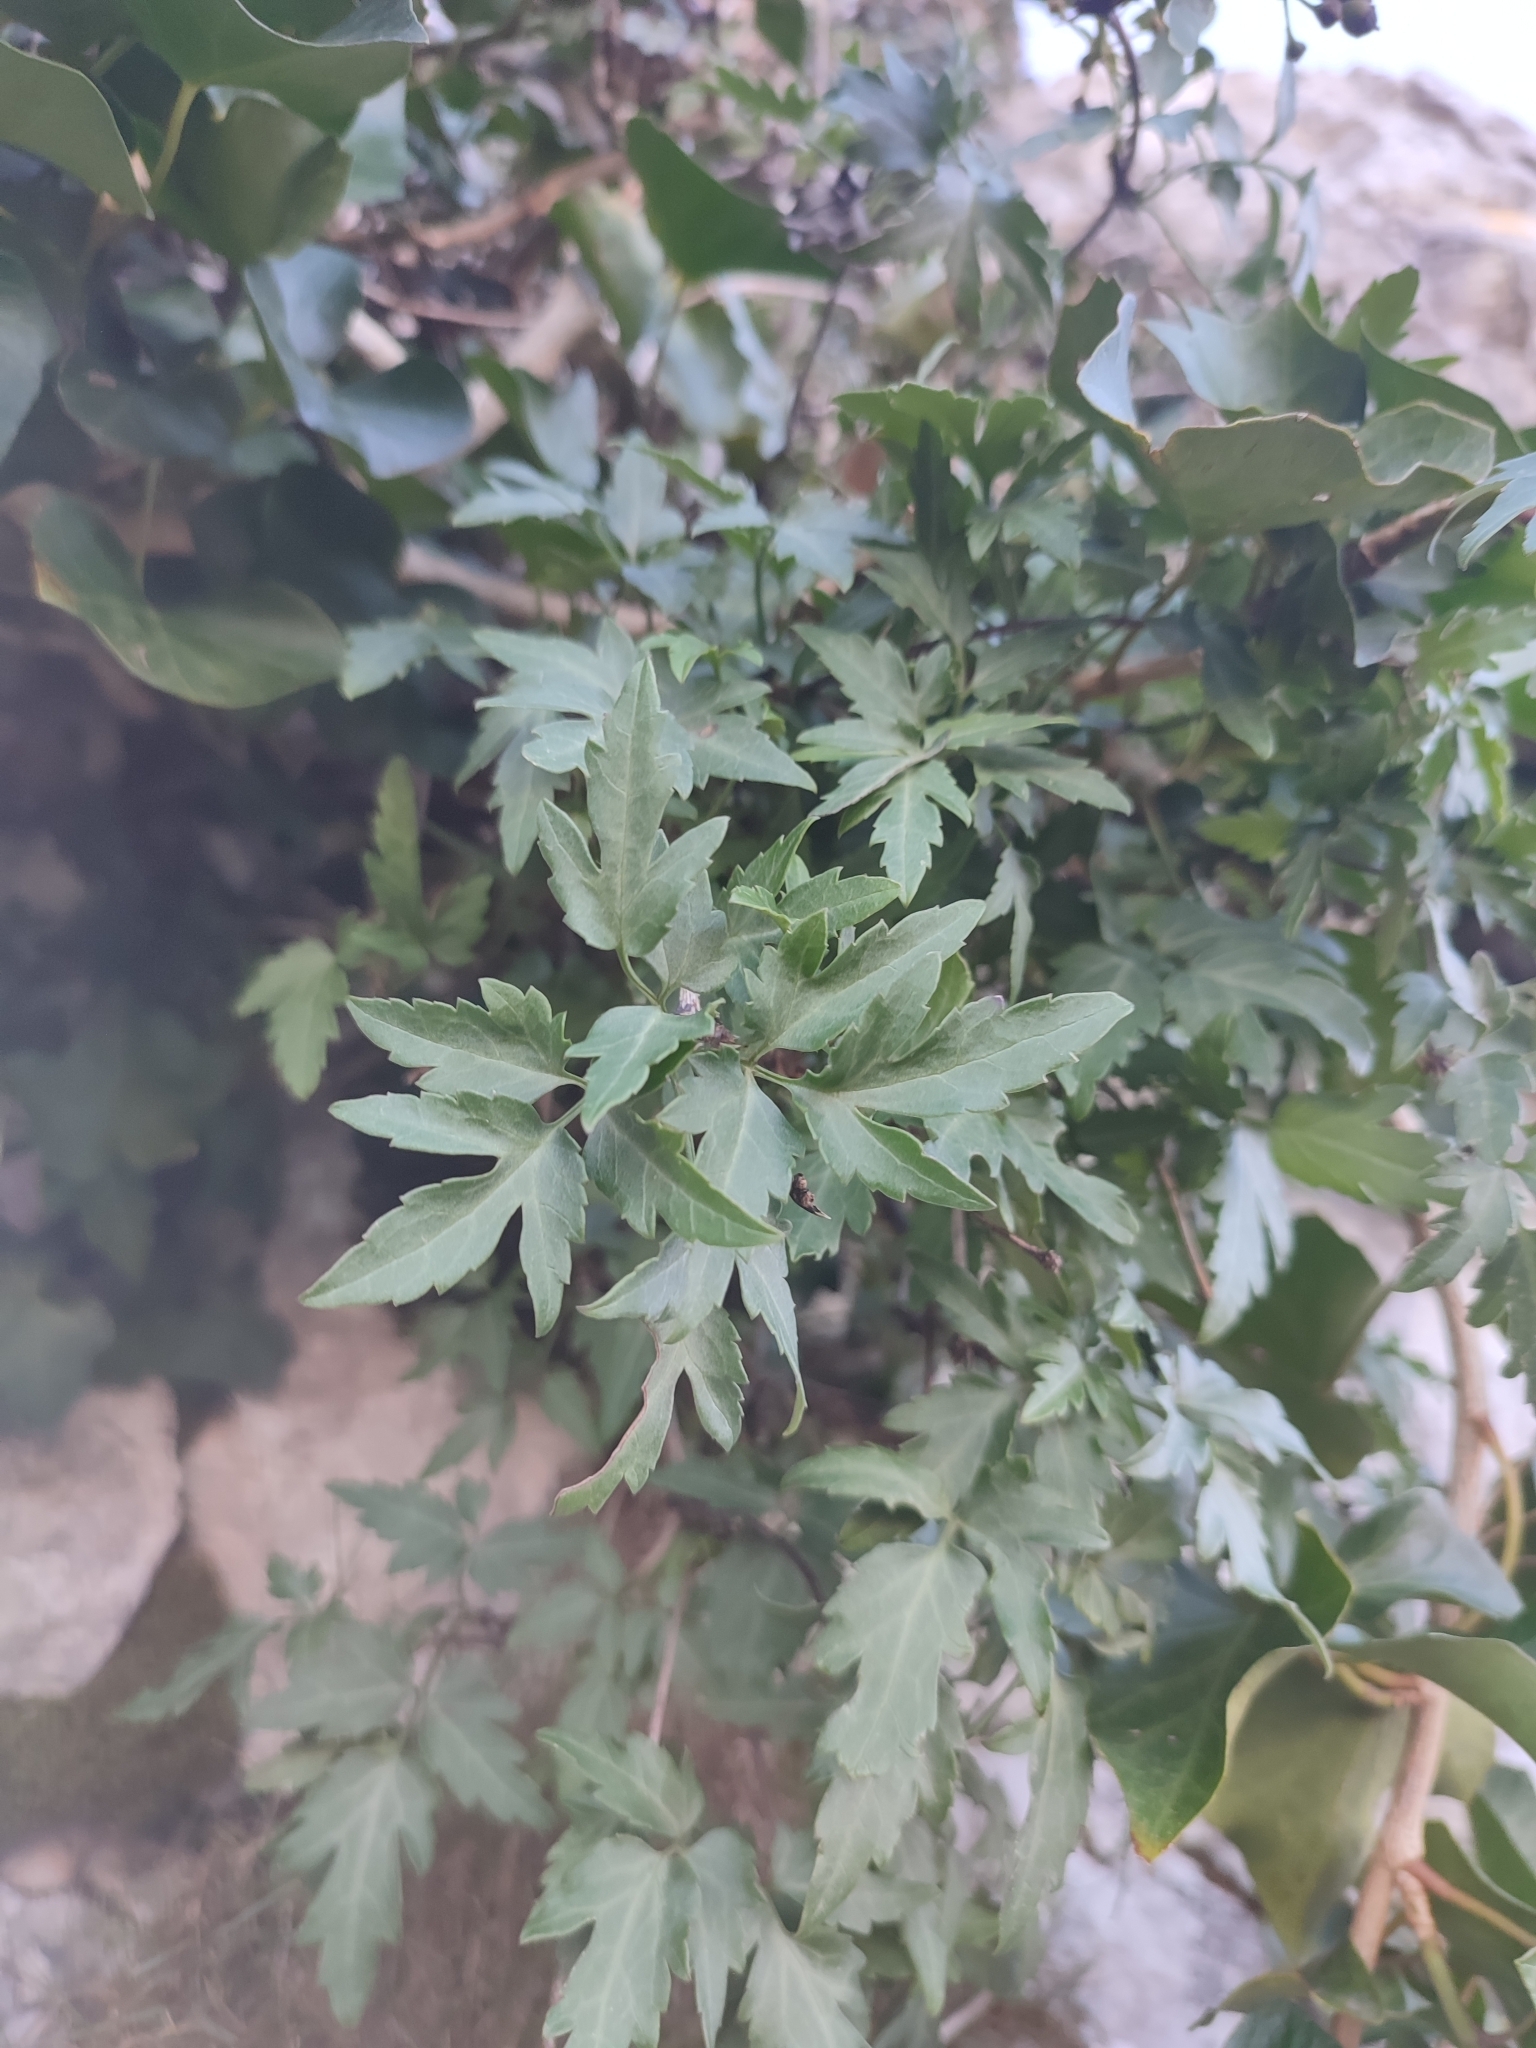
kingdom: Plantae
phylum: Tracheophyta
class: Magnoliopsida
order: Ranunculales
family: Ranunculaceae
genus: Clematis
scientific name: Clematis cirrhosa
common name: Early virgin's-bower
